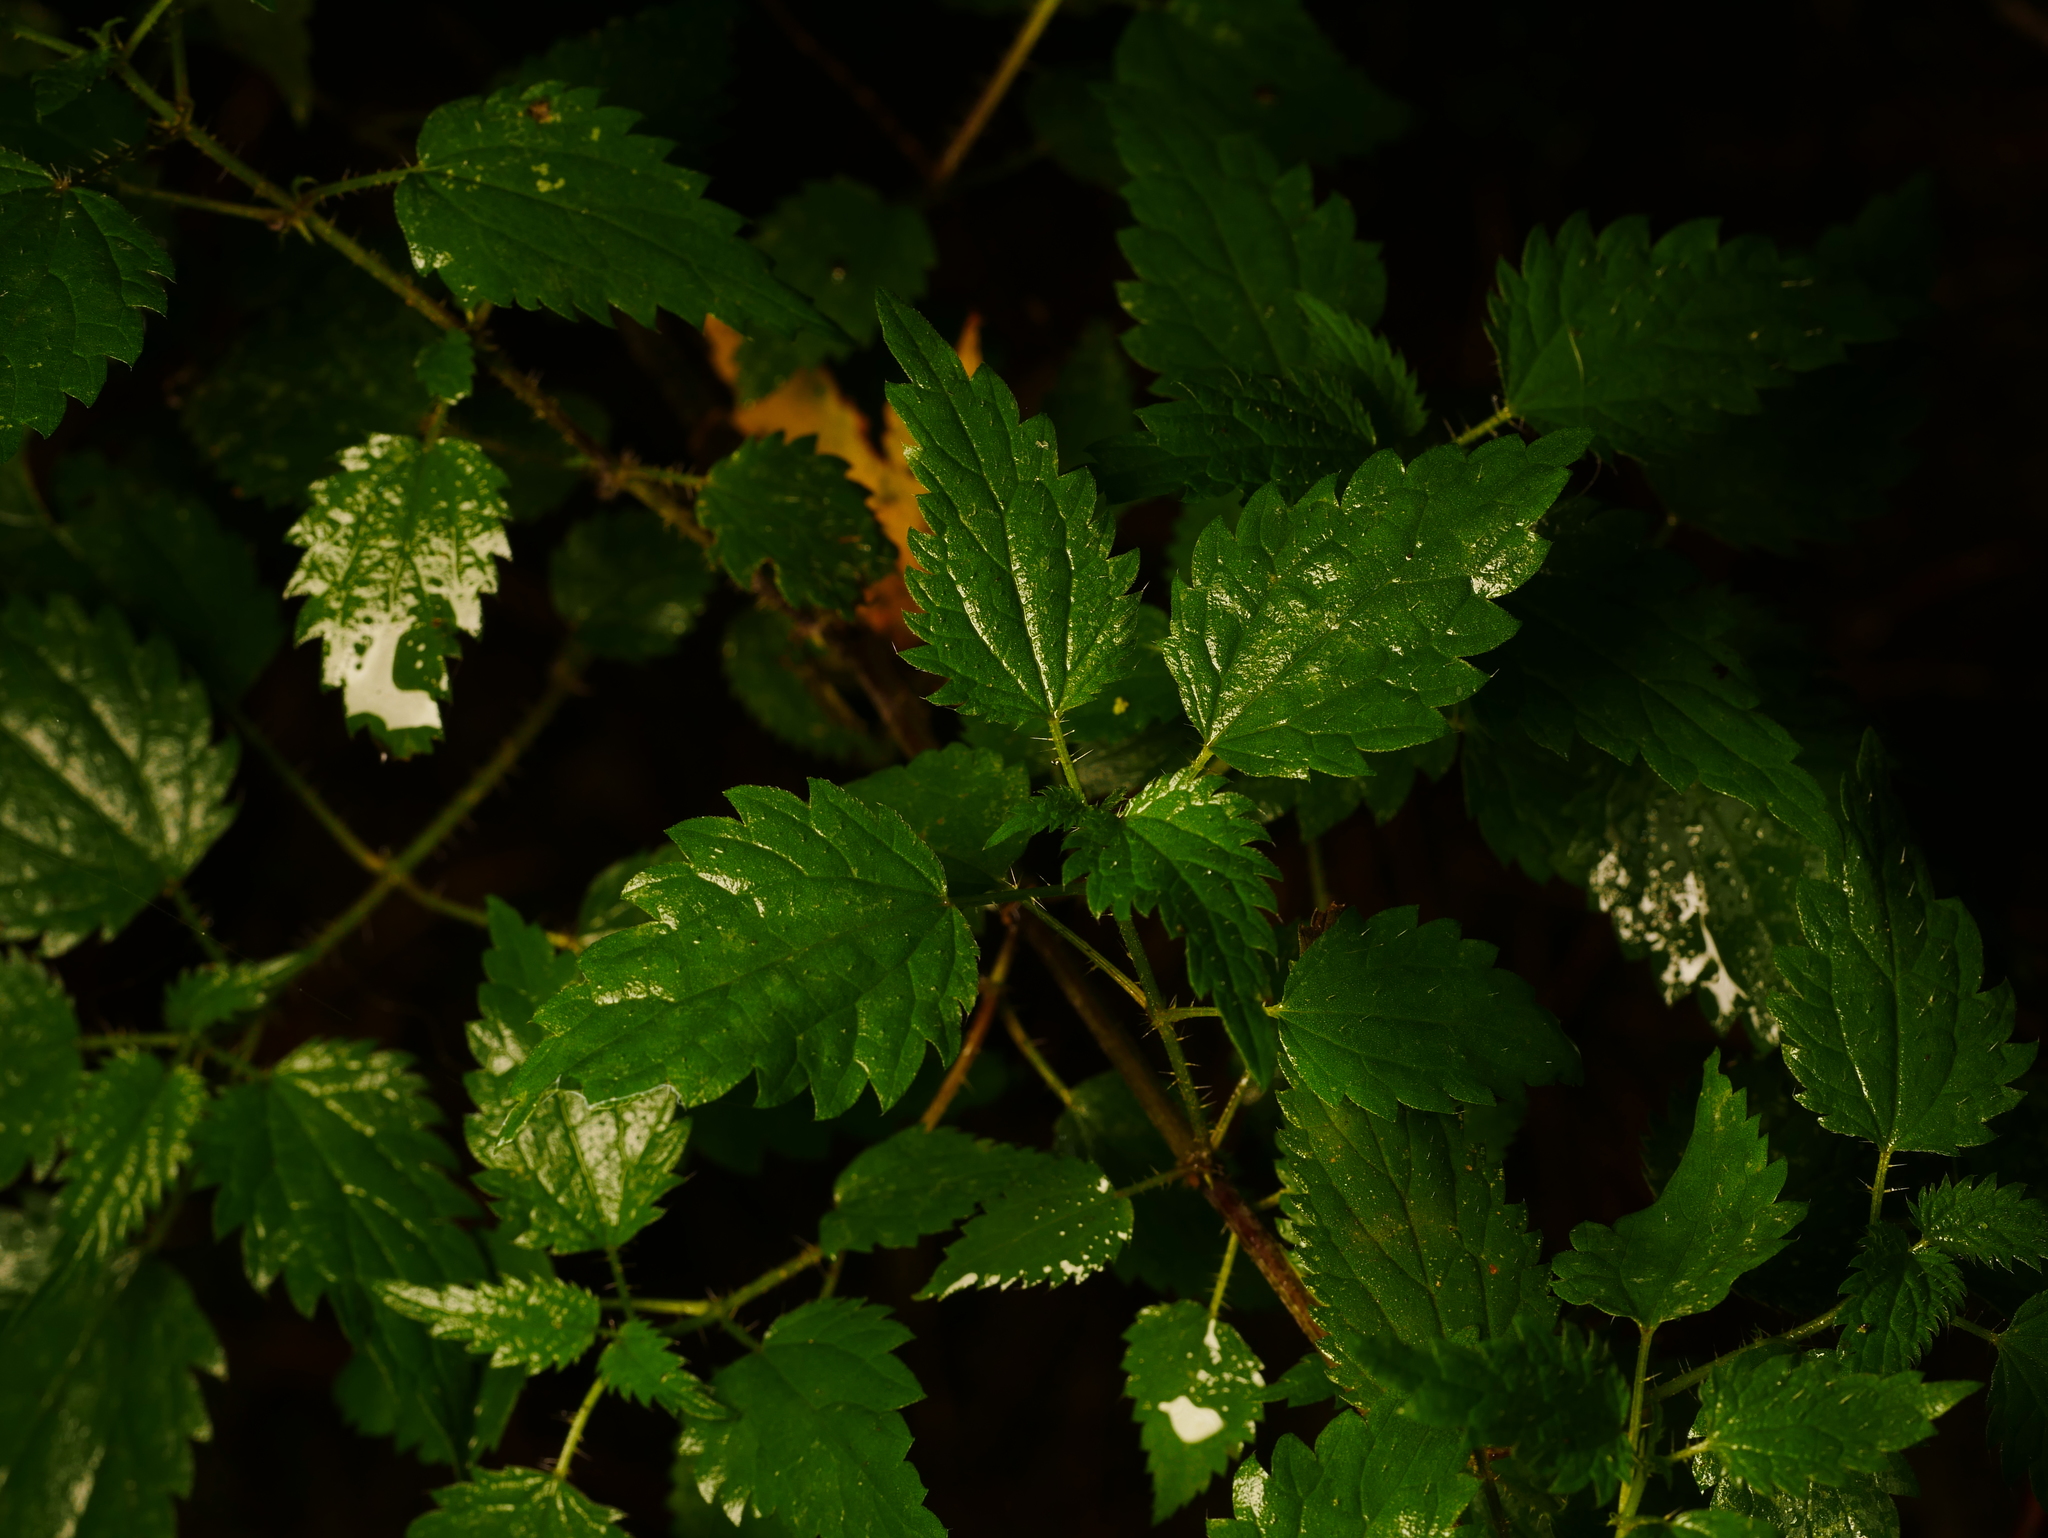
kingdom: Plantae
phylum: Tracheophyta
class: Magnoliopsida
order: Rosales
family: Urticaceae
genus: Urtica
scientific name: Urtica dioica
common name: Common nettle
